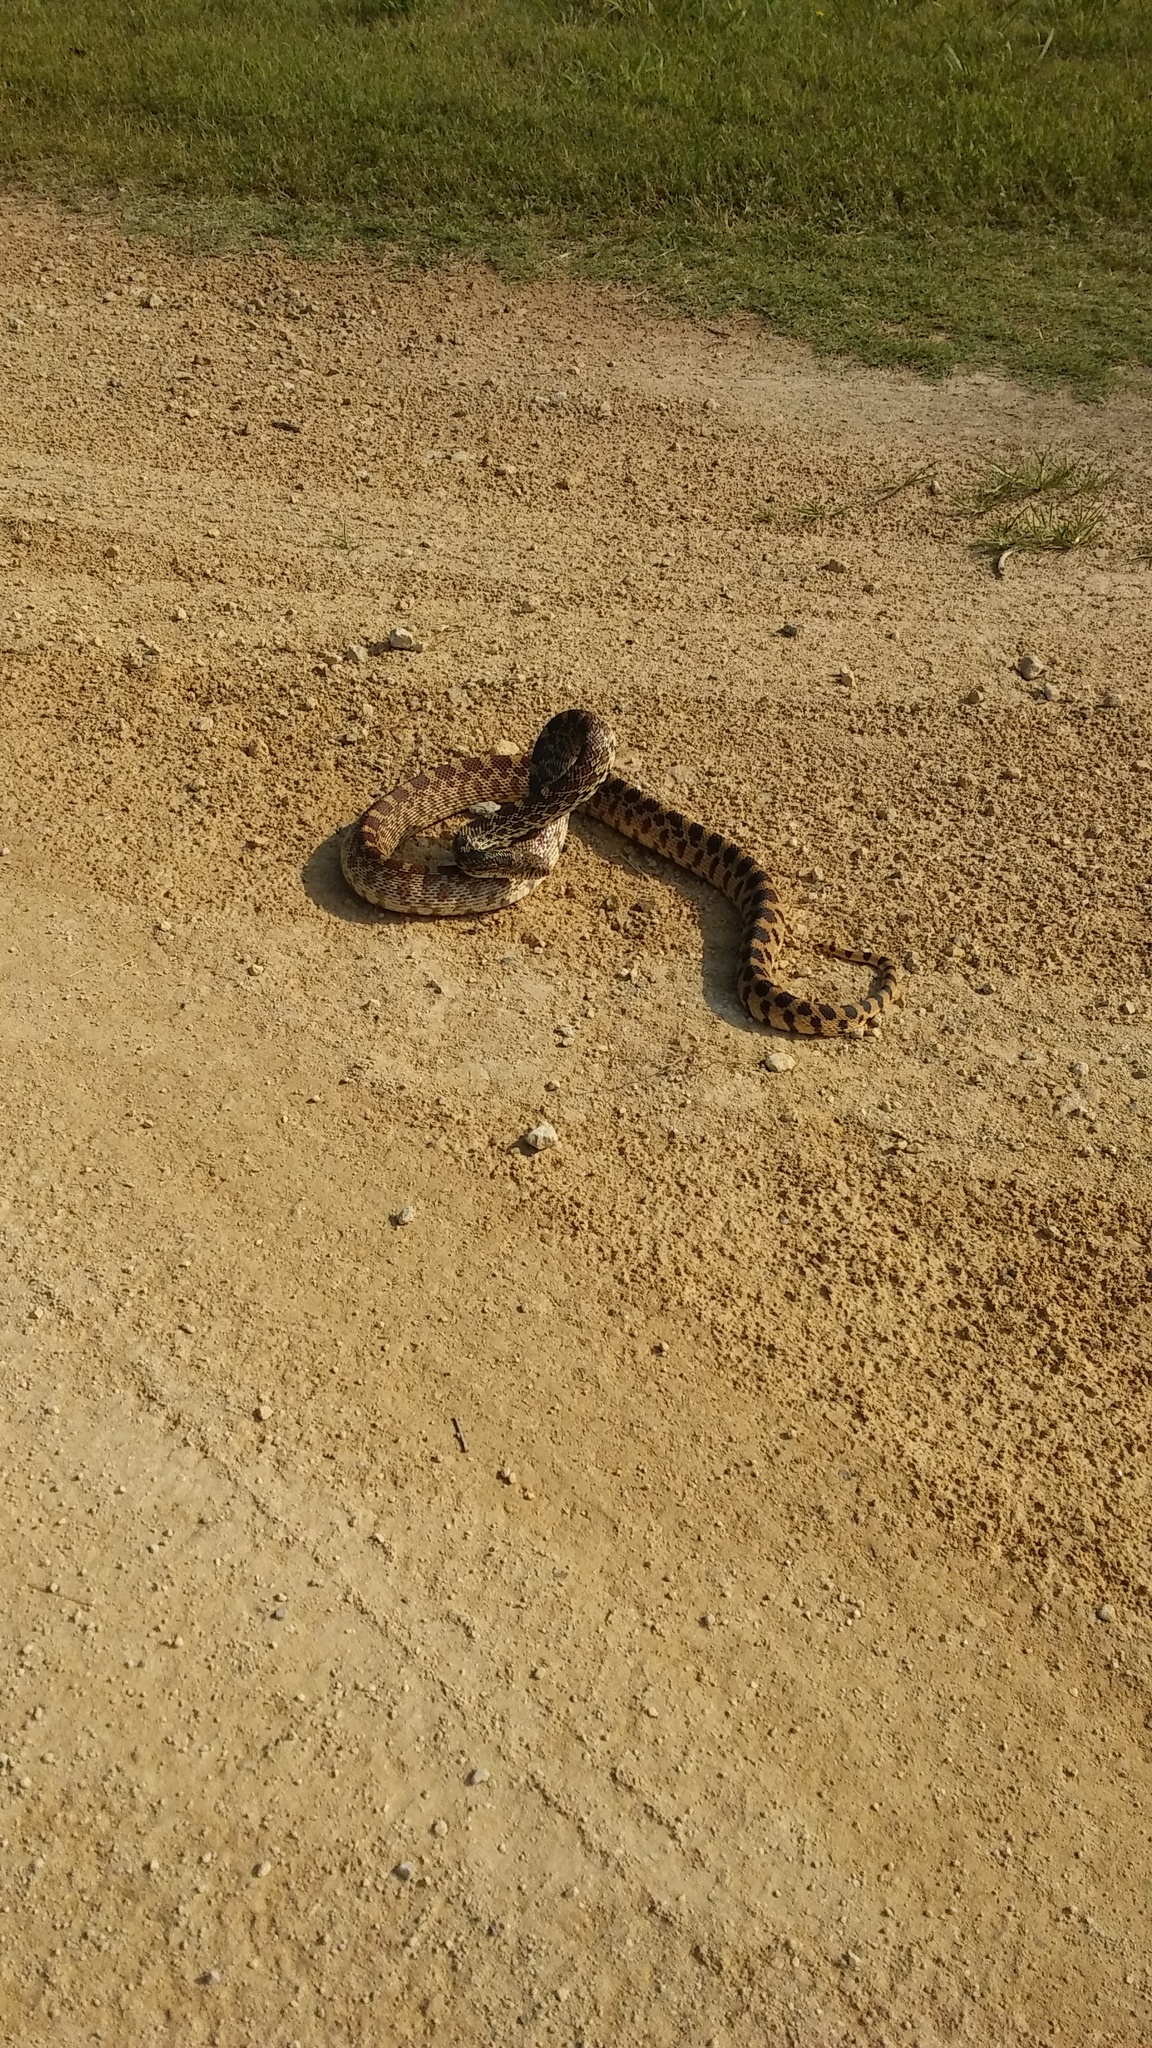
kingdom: Animalia
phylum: Chordata
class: Squamata
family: Colubridae
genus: Pituophis
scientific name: Pituophis catenifer
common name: Gopher snake
